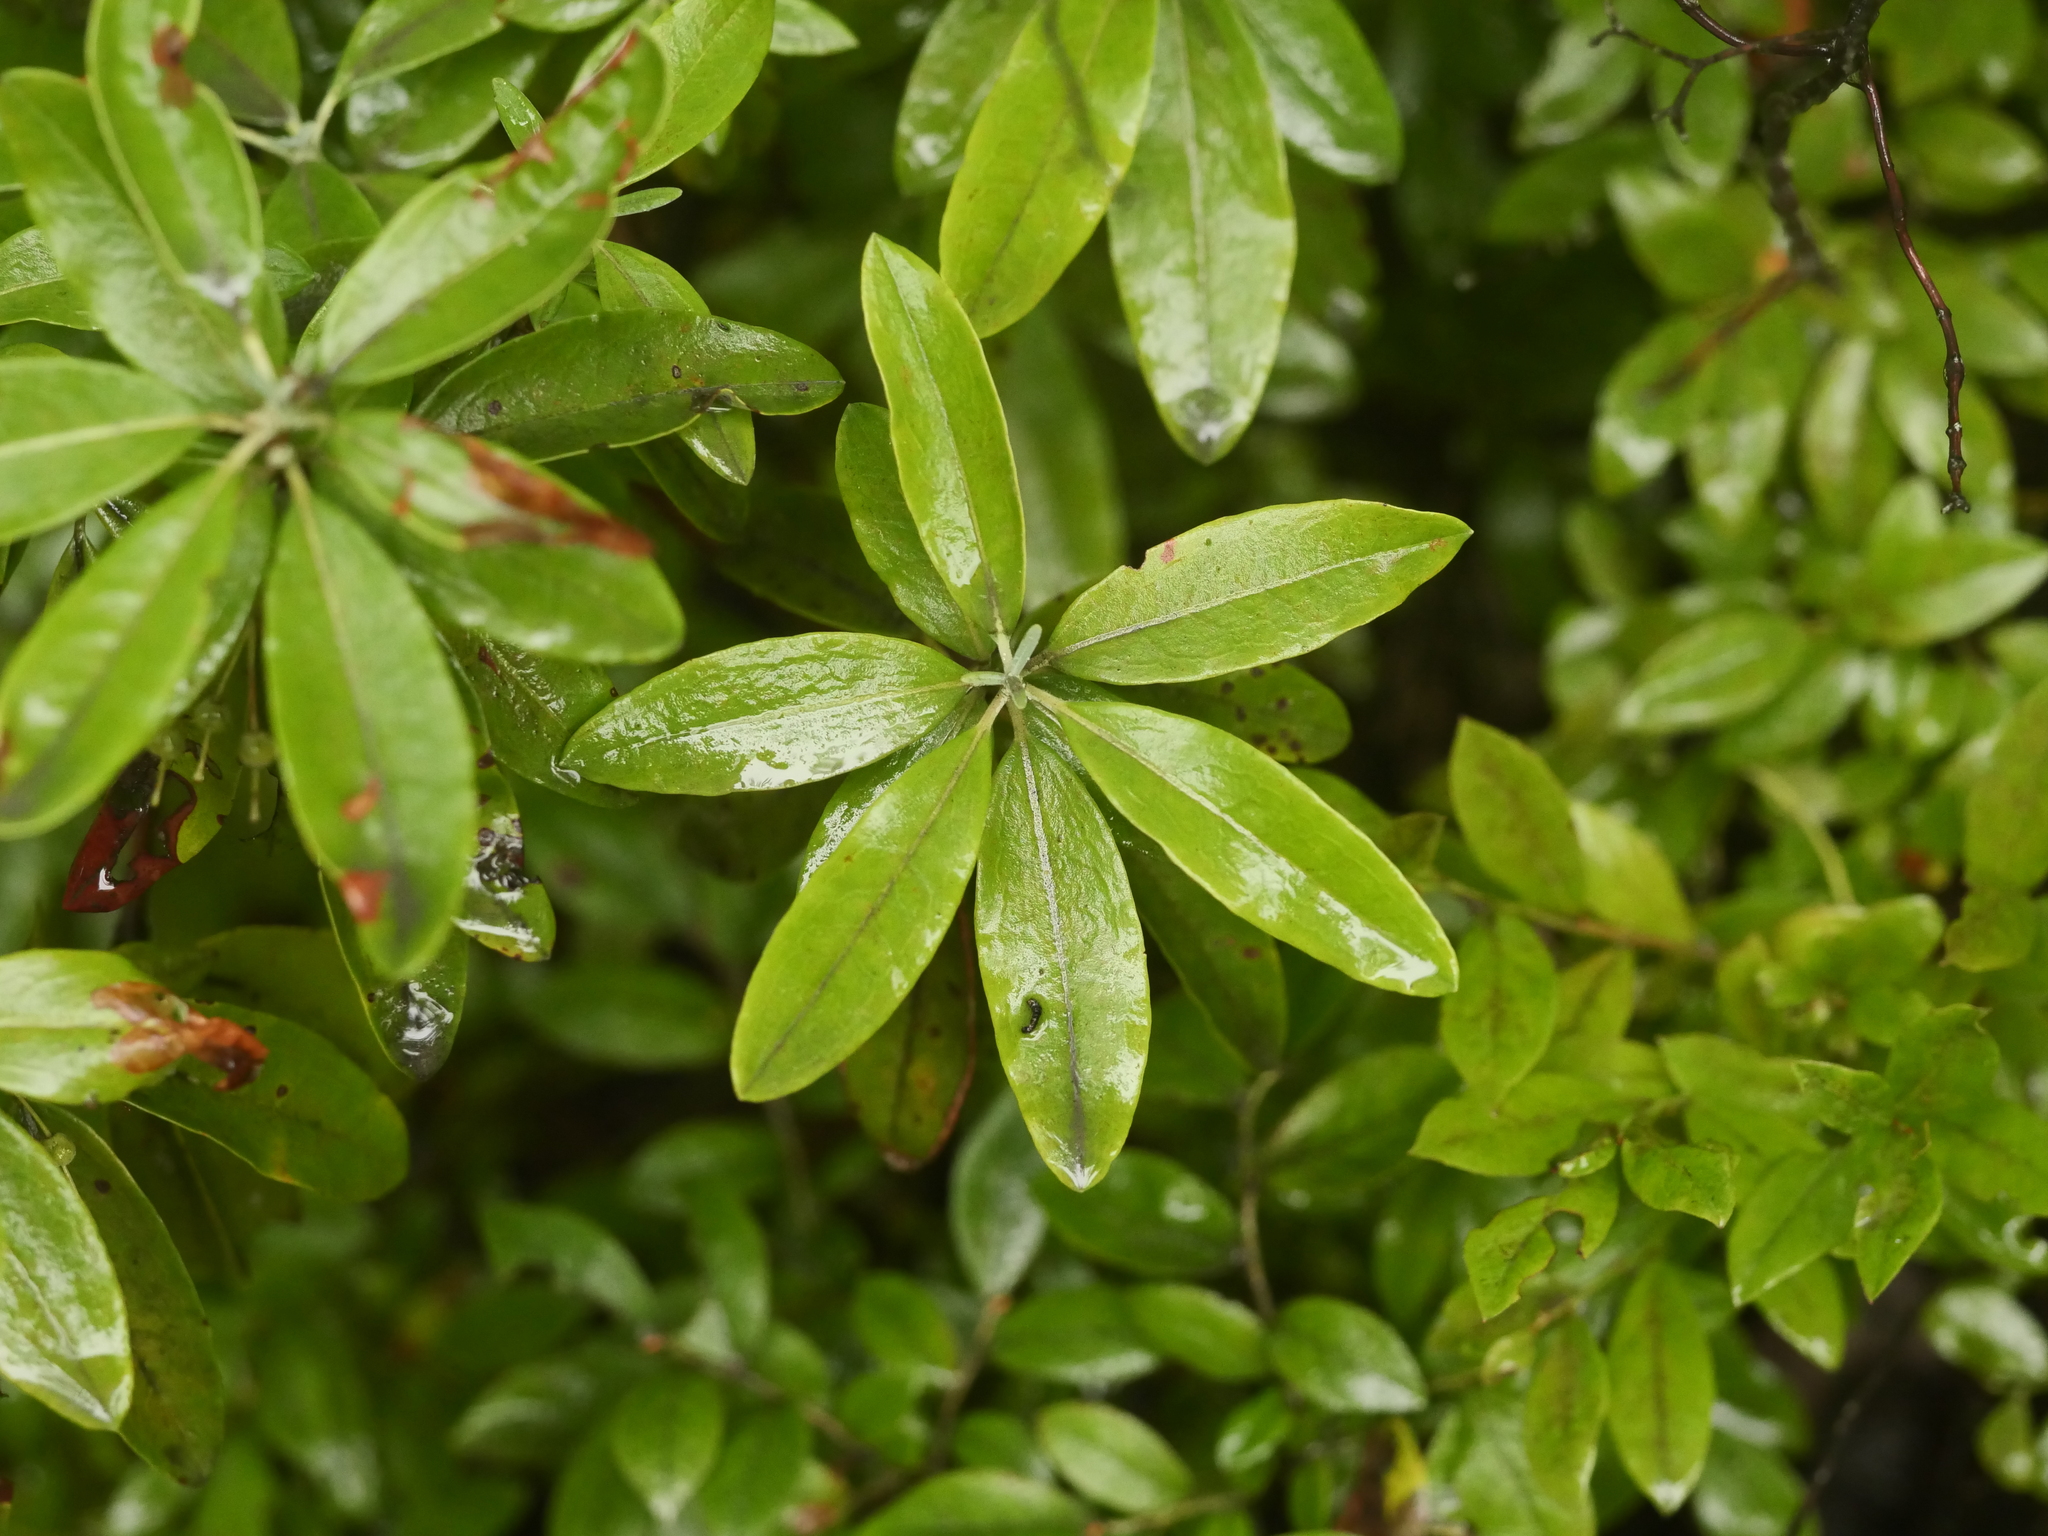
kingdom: Plantae
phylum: Tracheophyta
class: Magnoliopsida
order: Ericales
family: Ericaceae
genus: Kalmia
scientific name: Kalmia angustifolia
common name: Sheep-laurel
